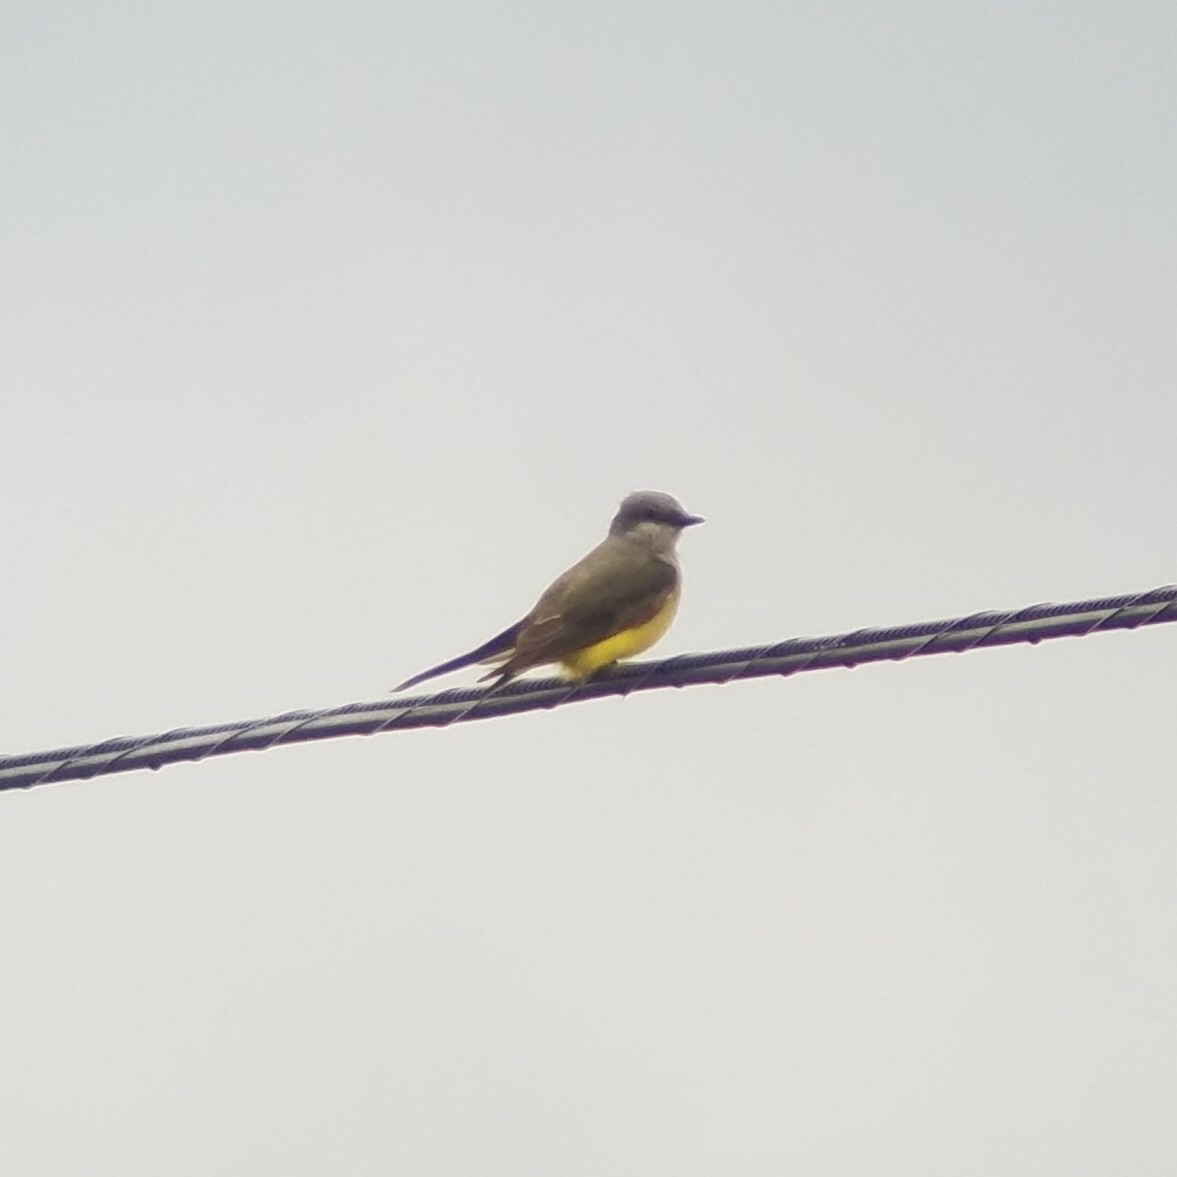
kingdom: Animalia
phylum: Chordata
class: Aves
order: Passeriformes
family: Tyrannidae
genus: Tyrannus
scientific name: Tyrannus verticalis
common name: Western kingbird
